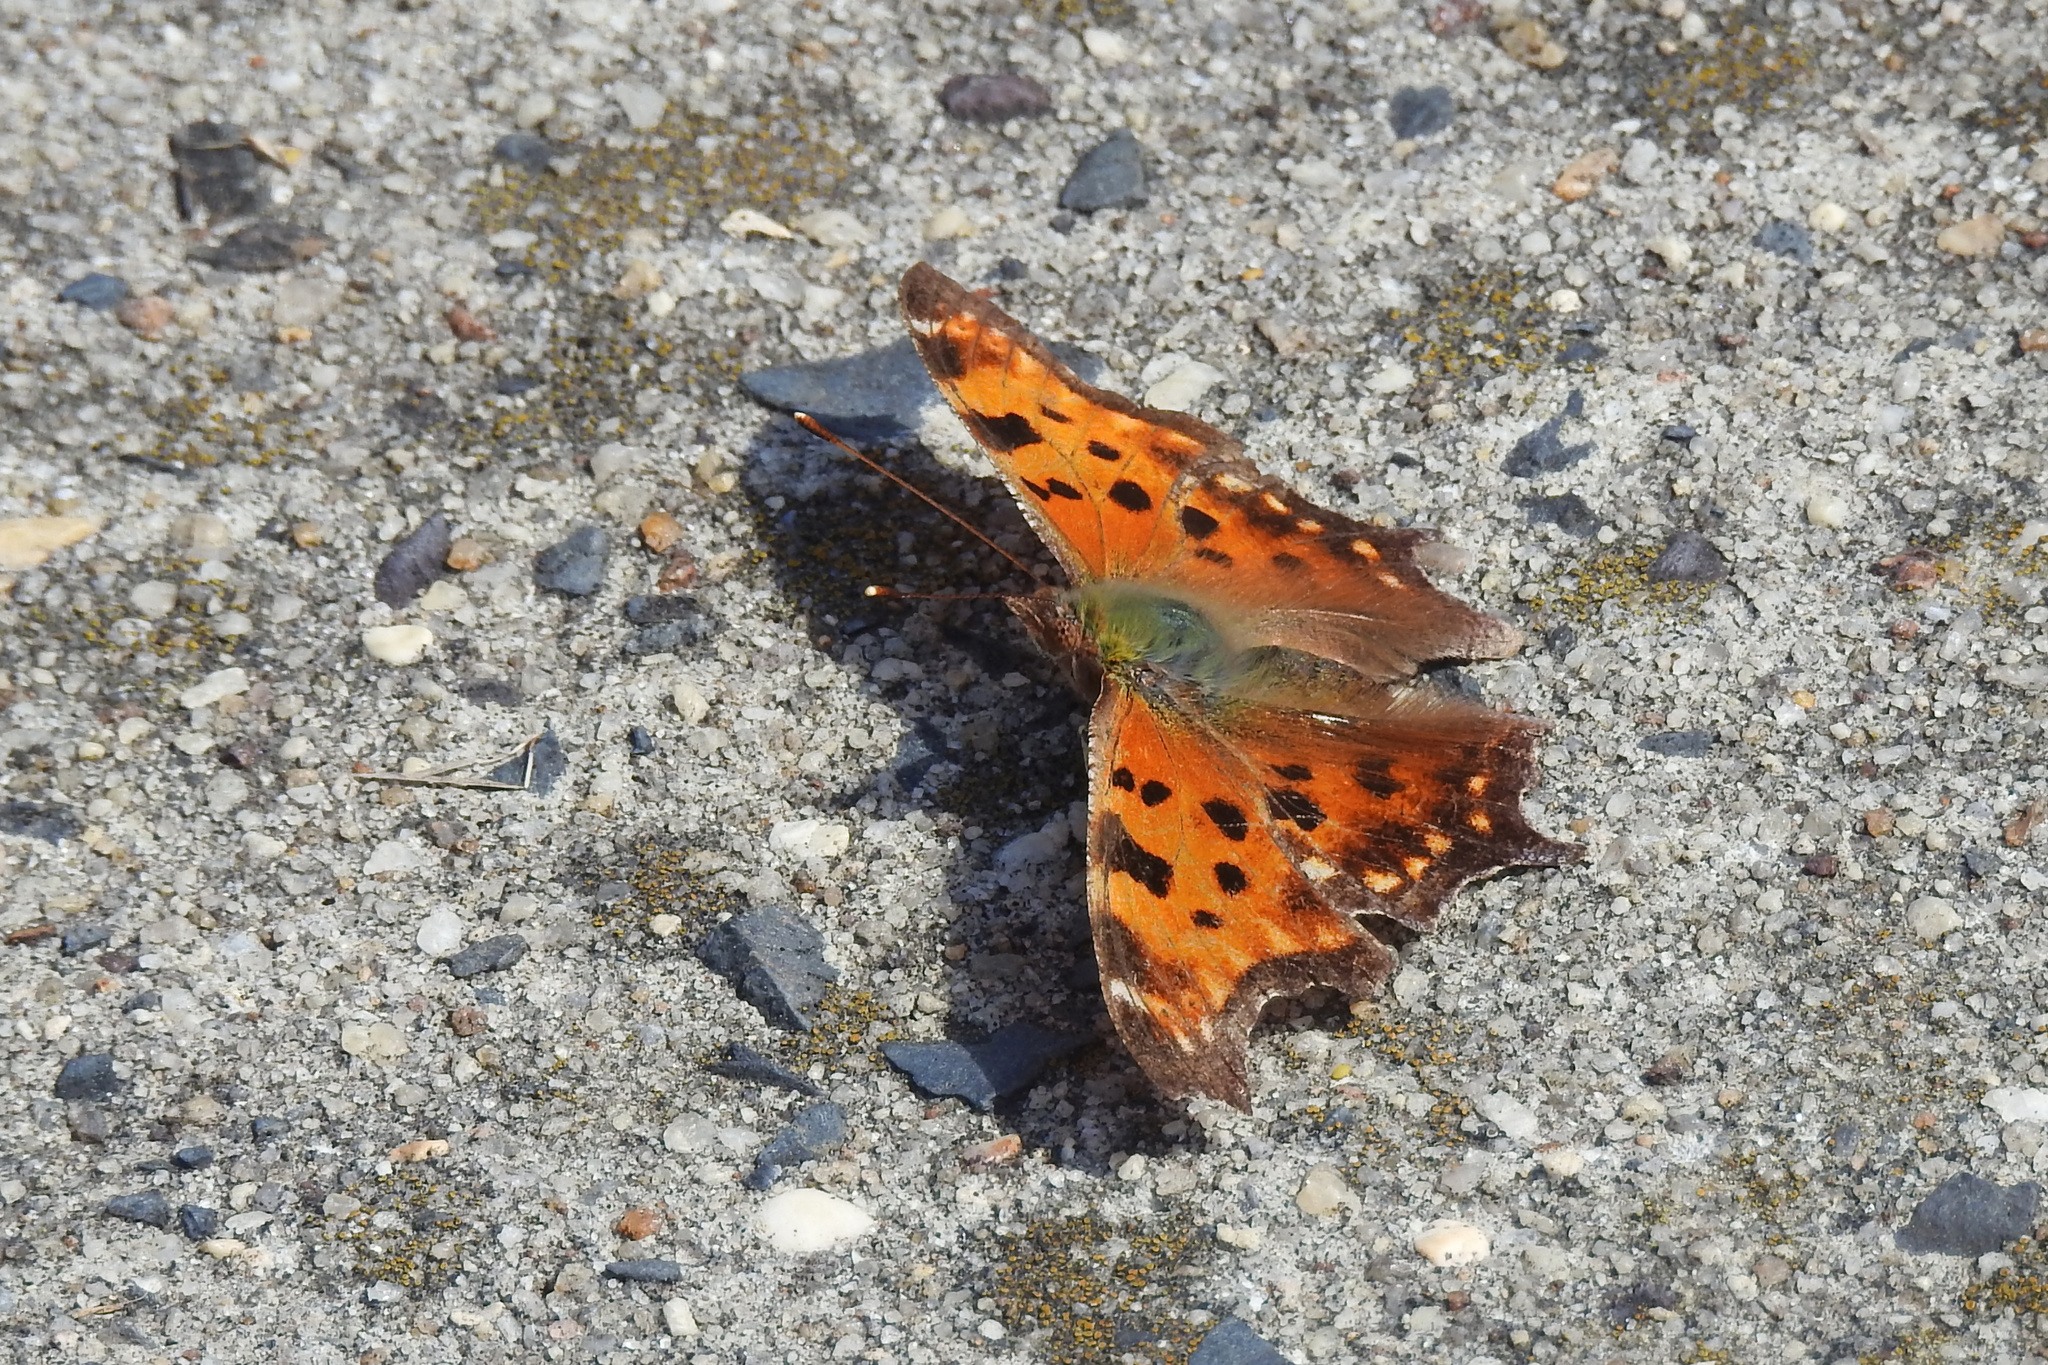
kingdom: Animalia
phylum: Arthropoda
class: Insecta
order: Lepidoptera
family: Nymphalidae
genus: Polygonia
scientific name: Polygonia comma
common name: Eastern comma
